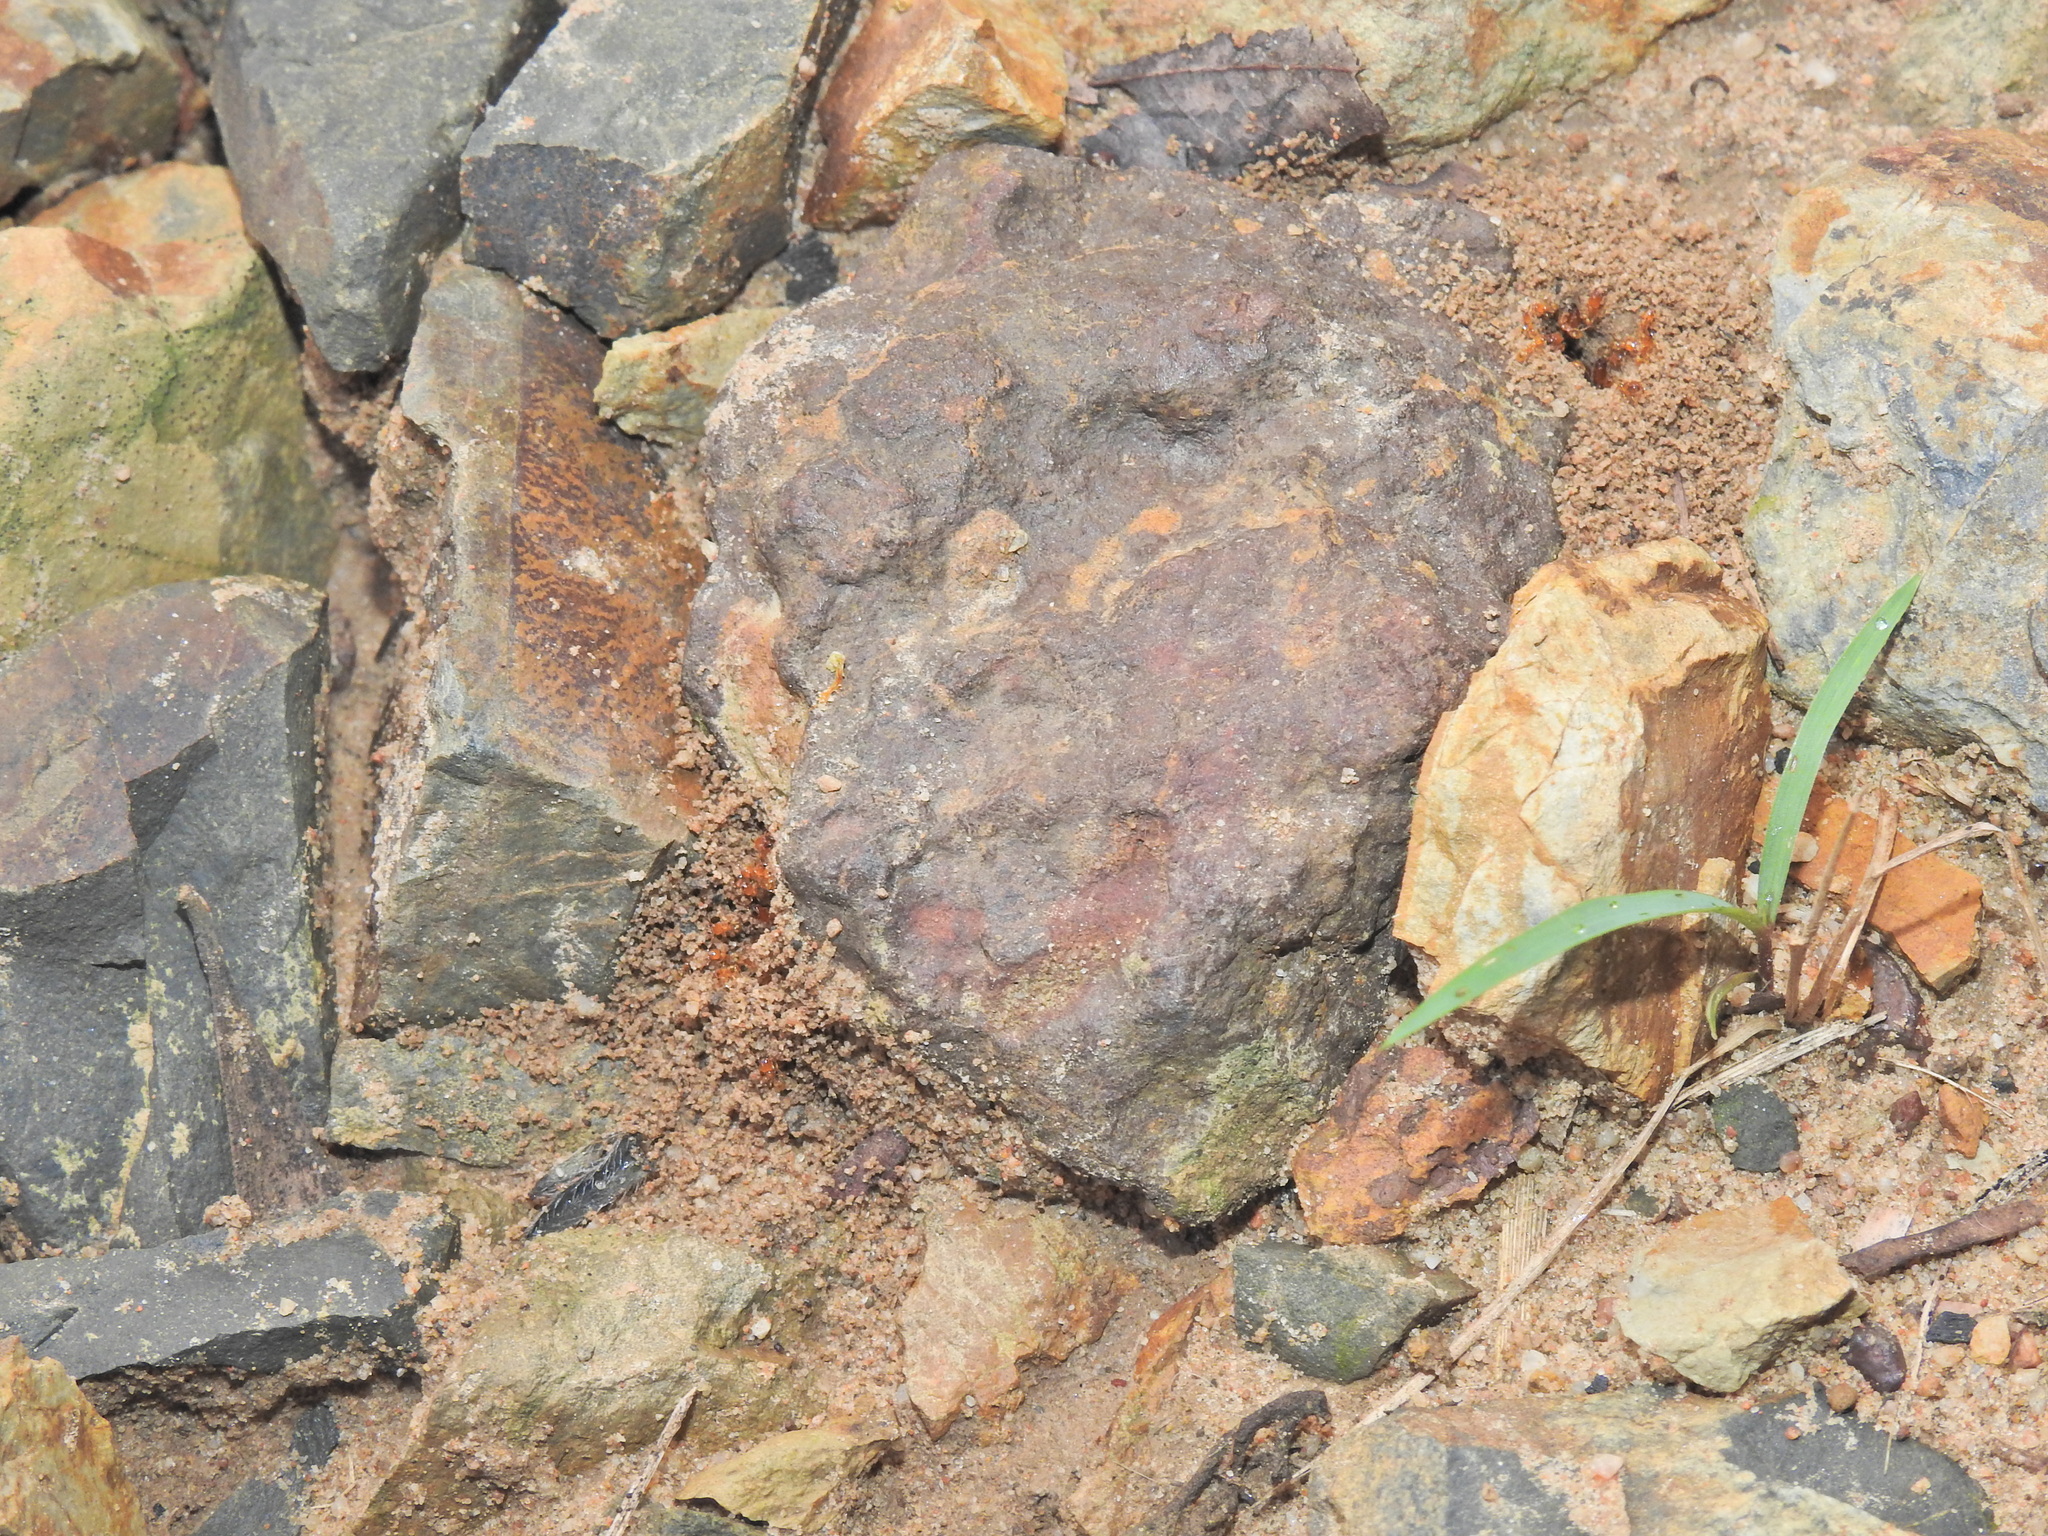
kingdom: Animalia
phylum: Arthropoda
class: Insecta
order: Hymenoptera
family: Formicidae
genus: Pheidole
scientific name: Pheidole
